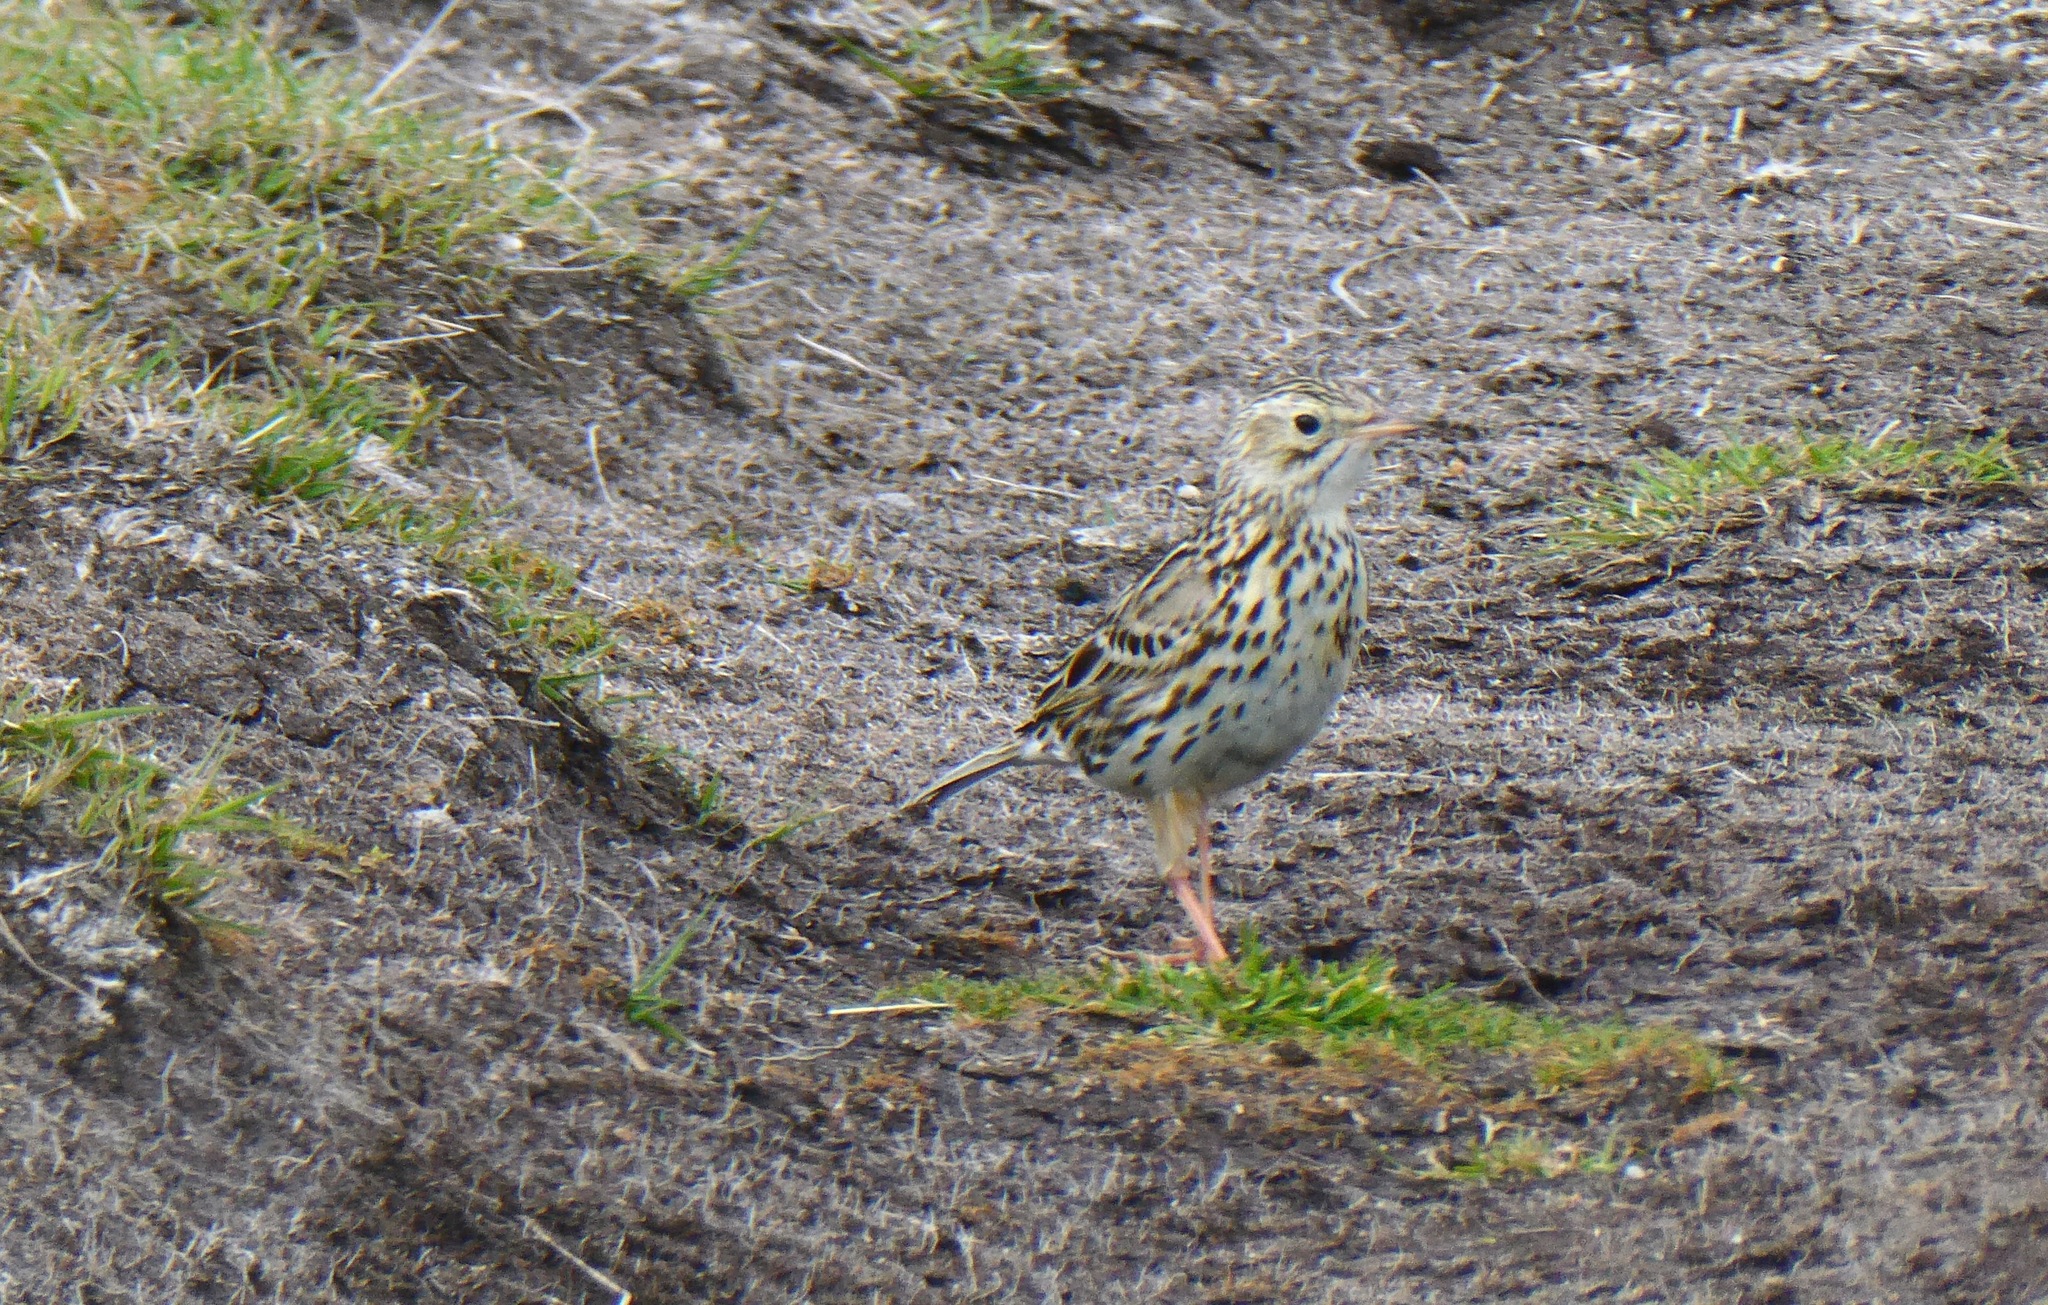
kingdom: Animalia
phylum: Chordata
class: Aves
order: Passeriformes
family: Motacillidae
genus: Anthus
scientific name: Anthus correndera
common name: Correndera pipit
